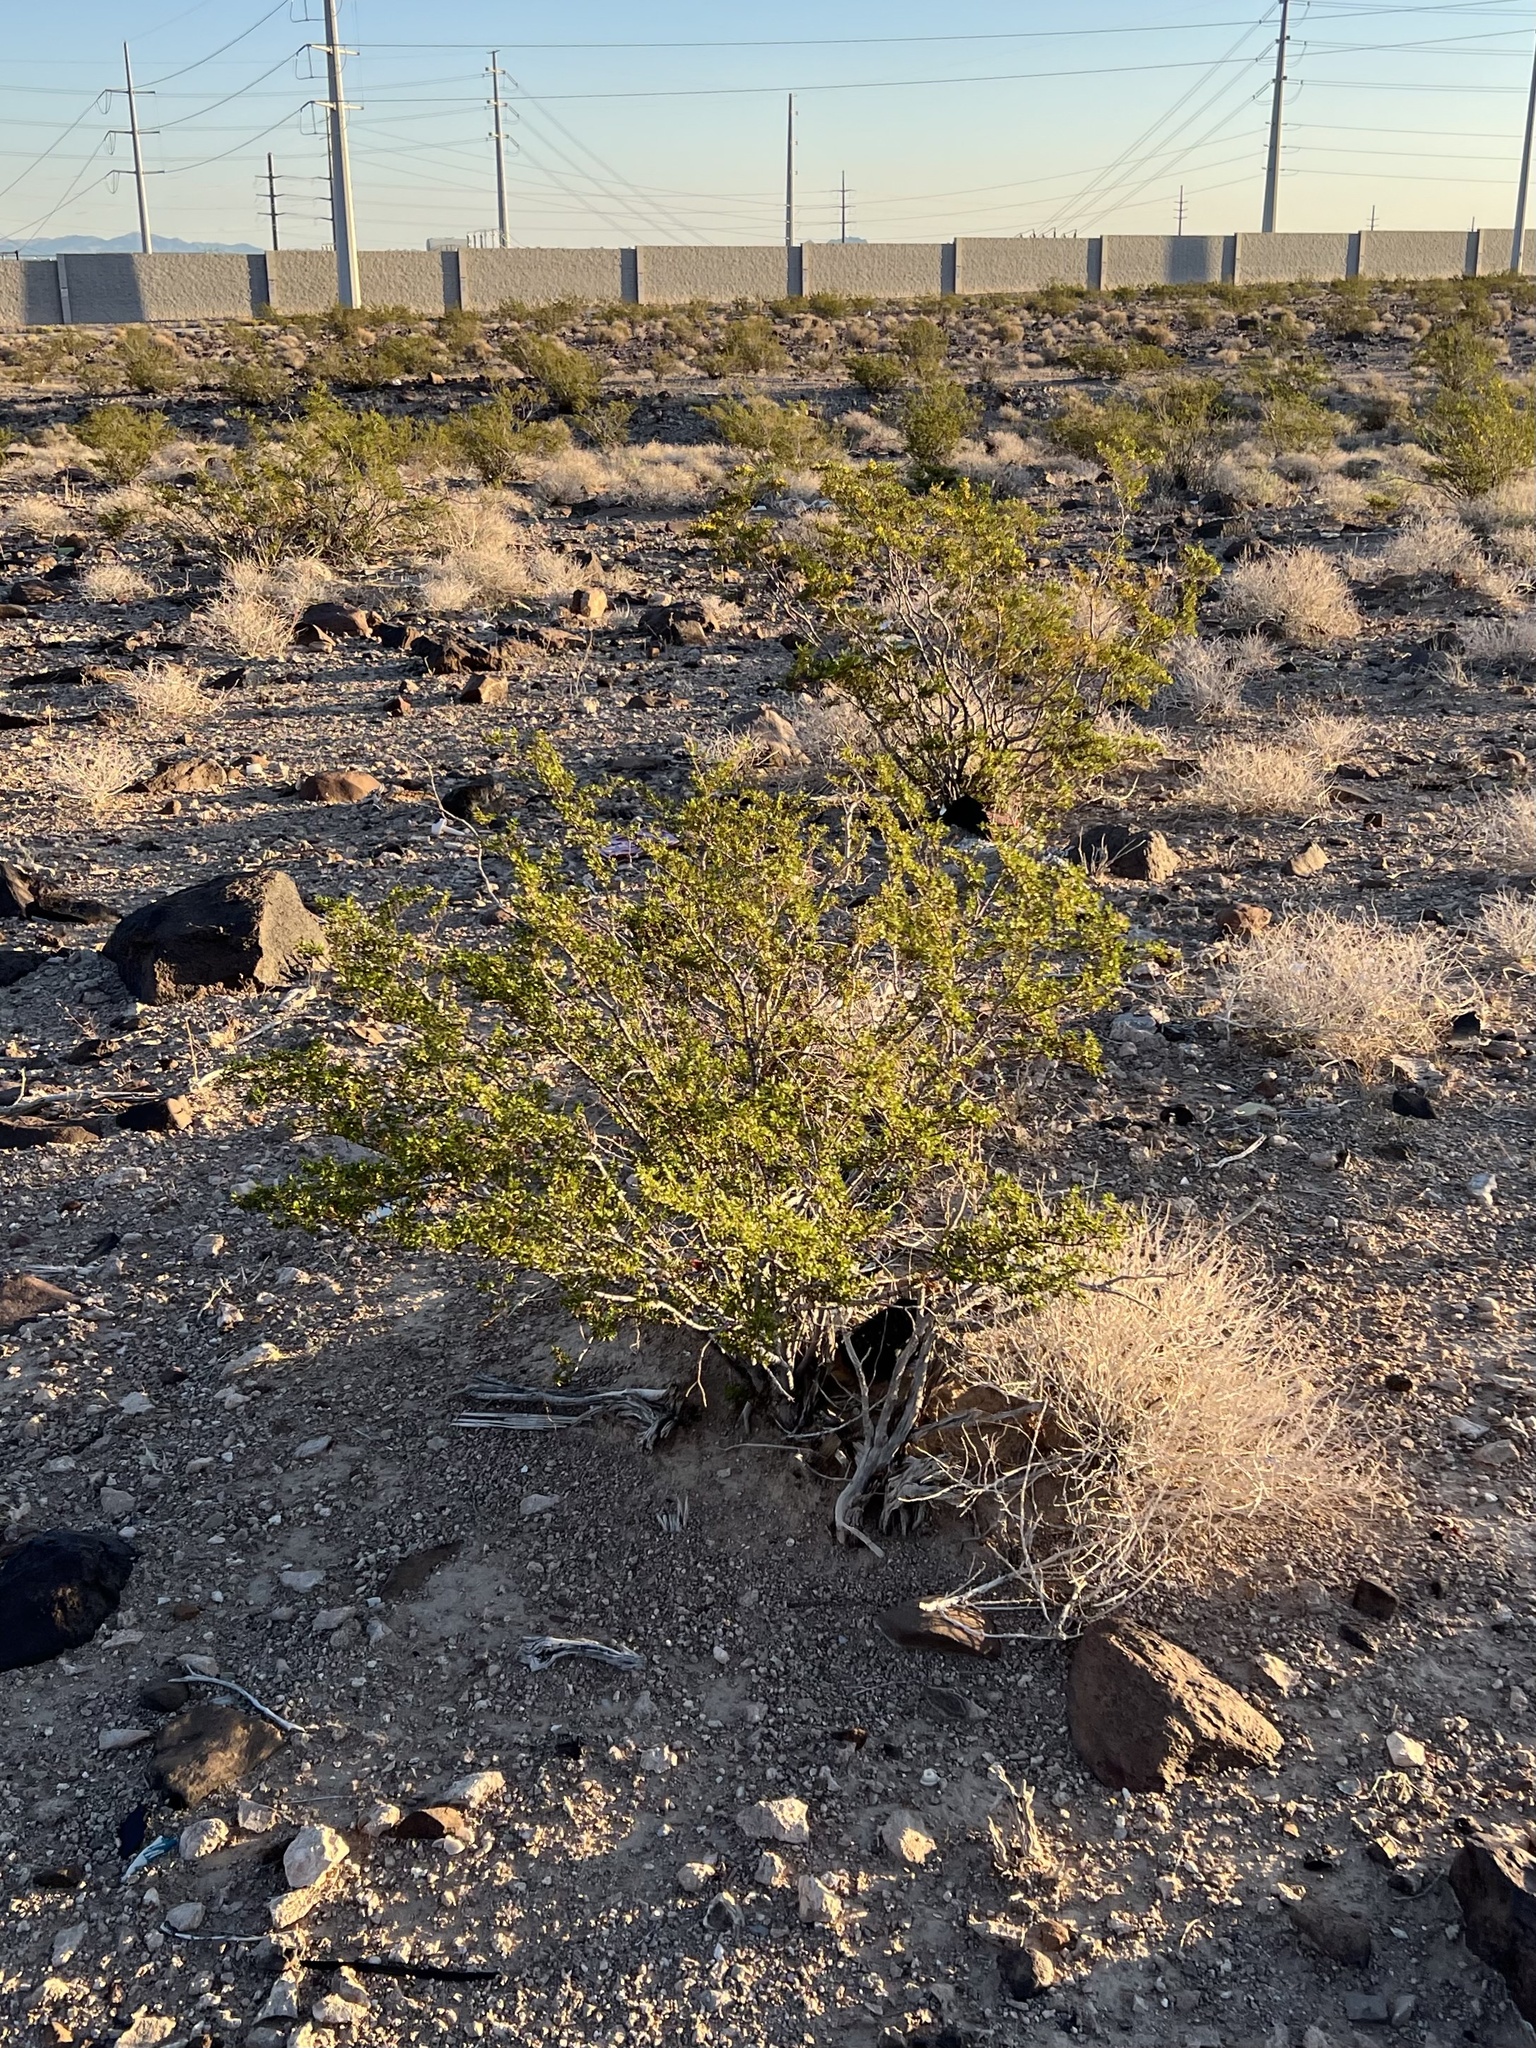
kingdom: Plantae
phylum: Tracheophyta
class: Magnoliopsida
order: Zygophyllales
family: Zygophyllaceae
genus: Larrea
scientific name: Larrea tridentata
